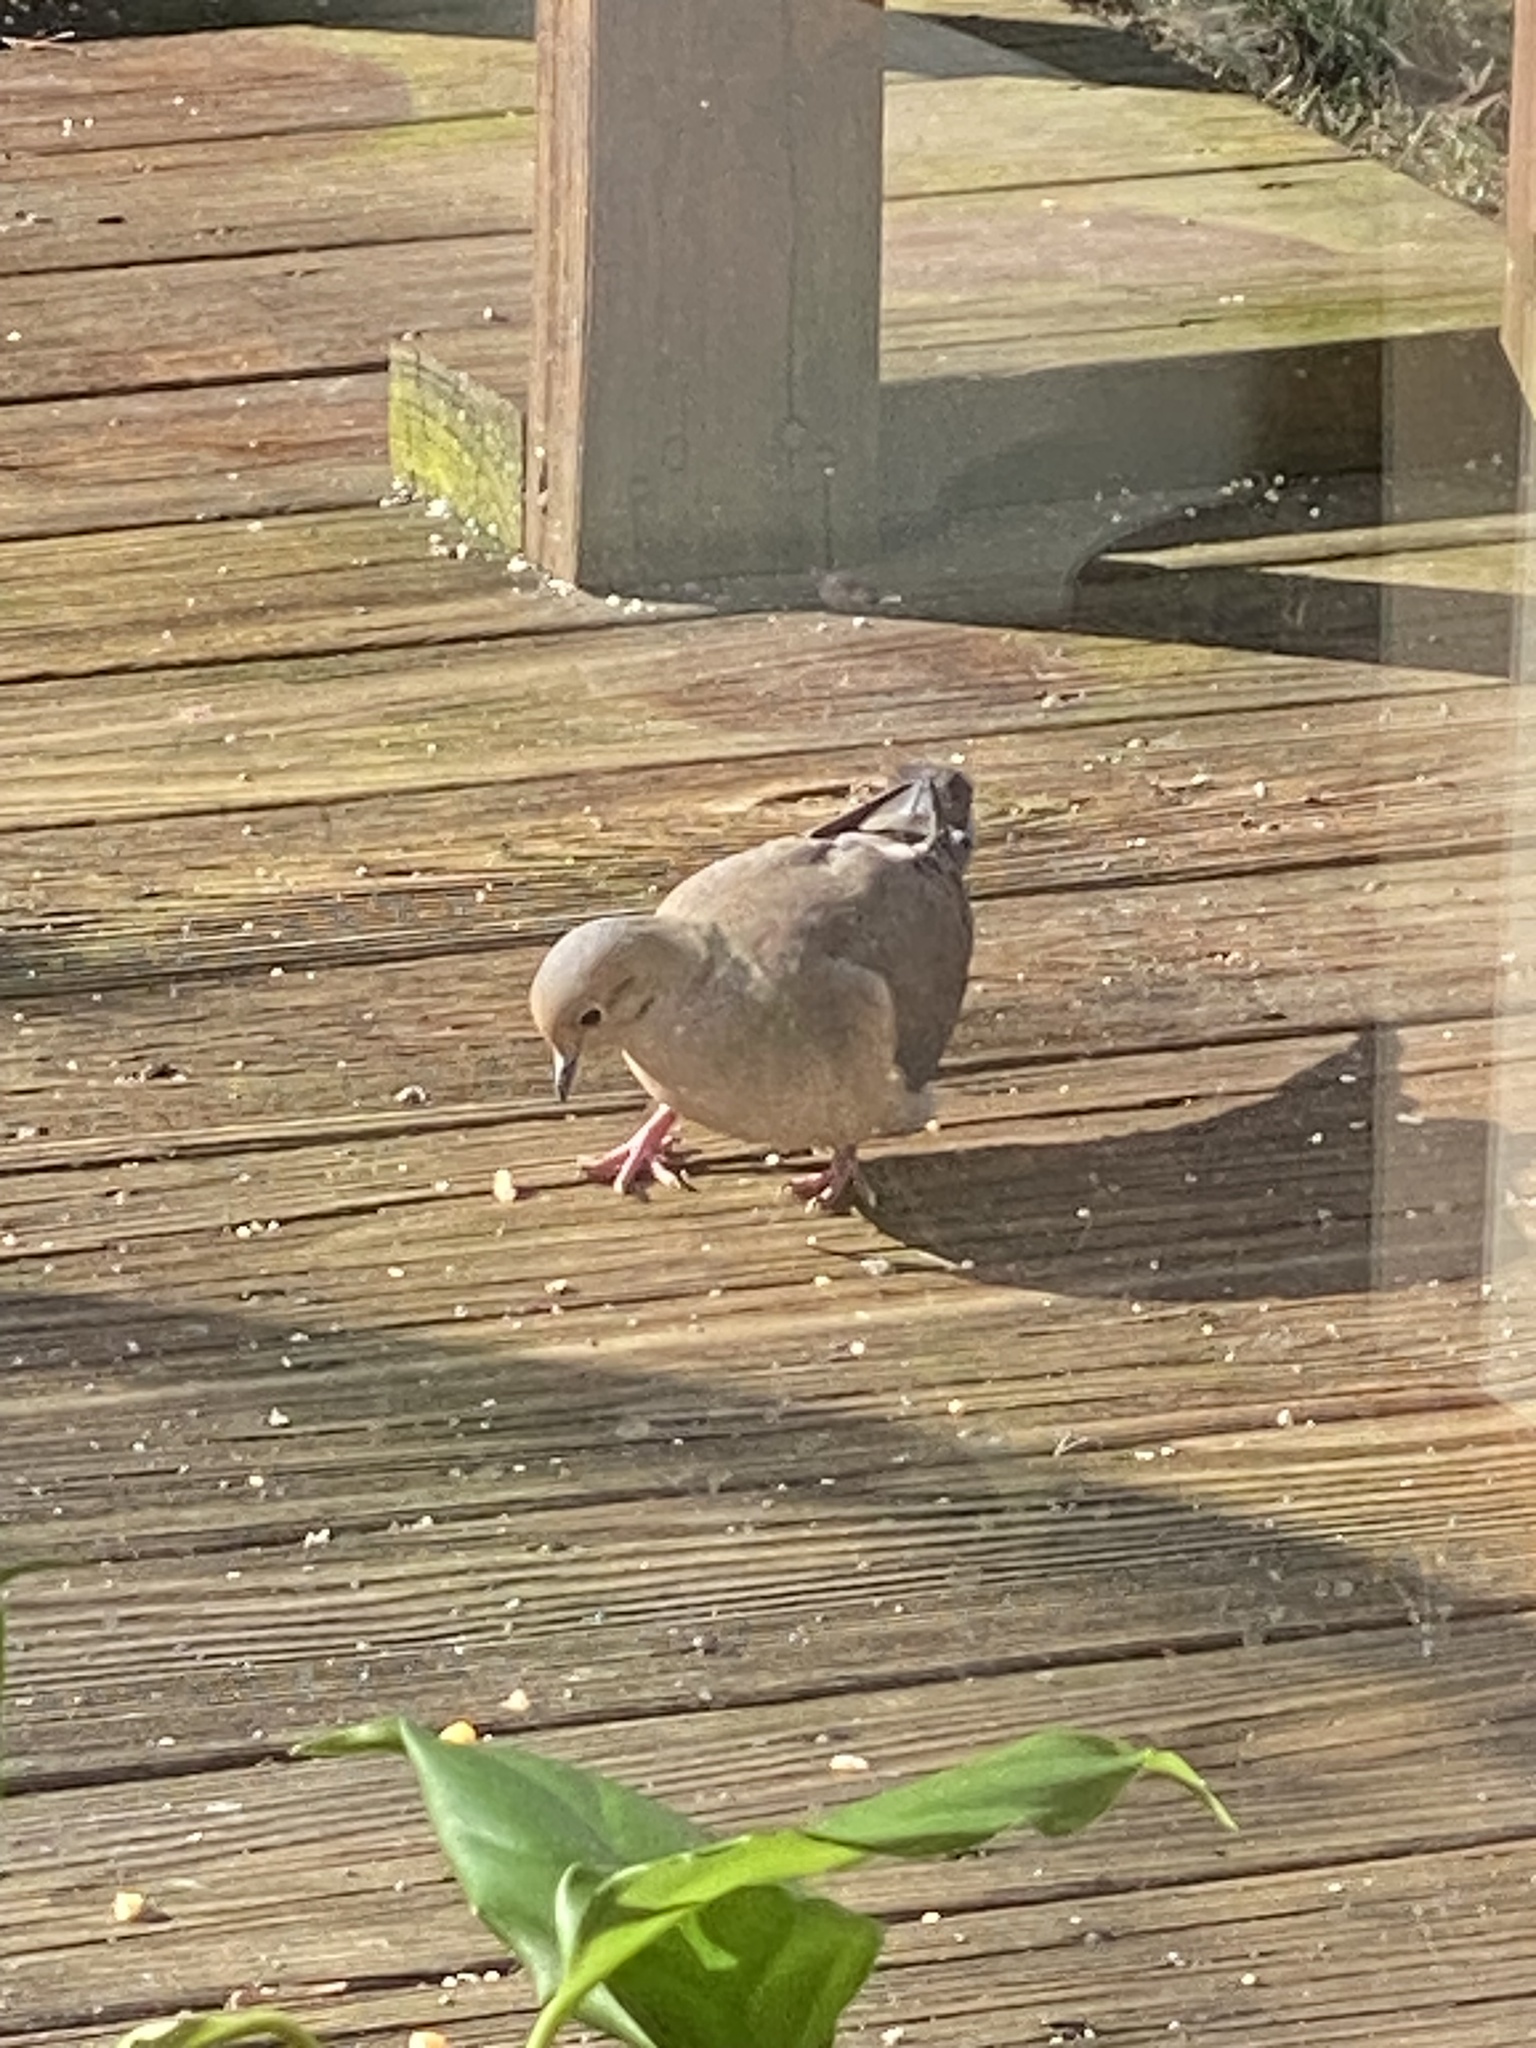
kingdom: Animalia
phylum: Chordata
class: Aves
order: Columbiformes
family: Columbidae
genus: Zenaida
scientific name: Zenaida macroura
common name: Mourning dove
